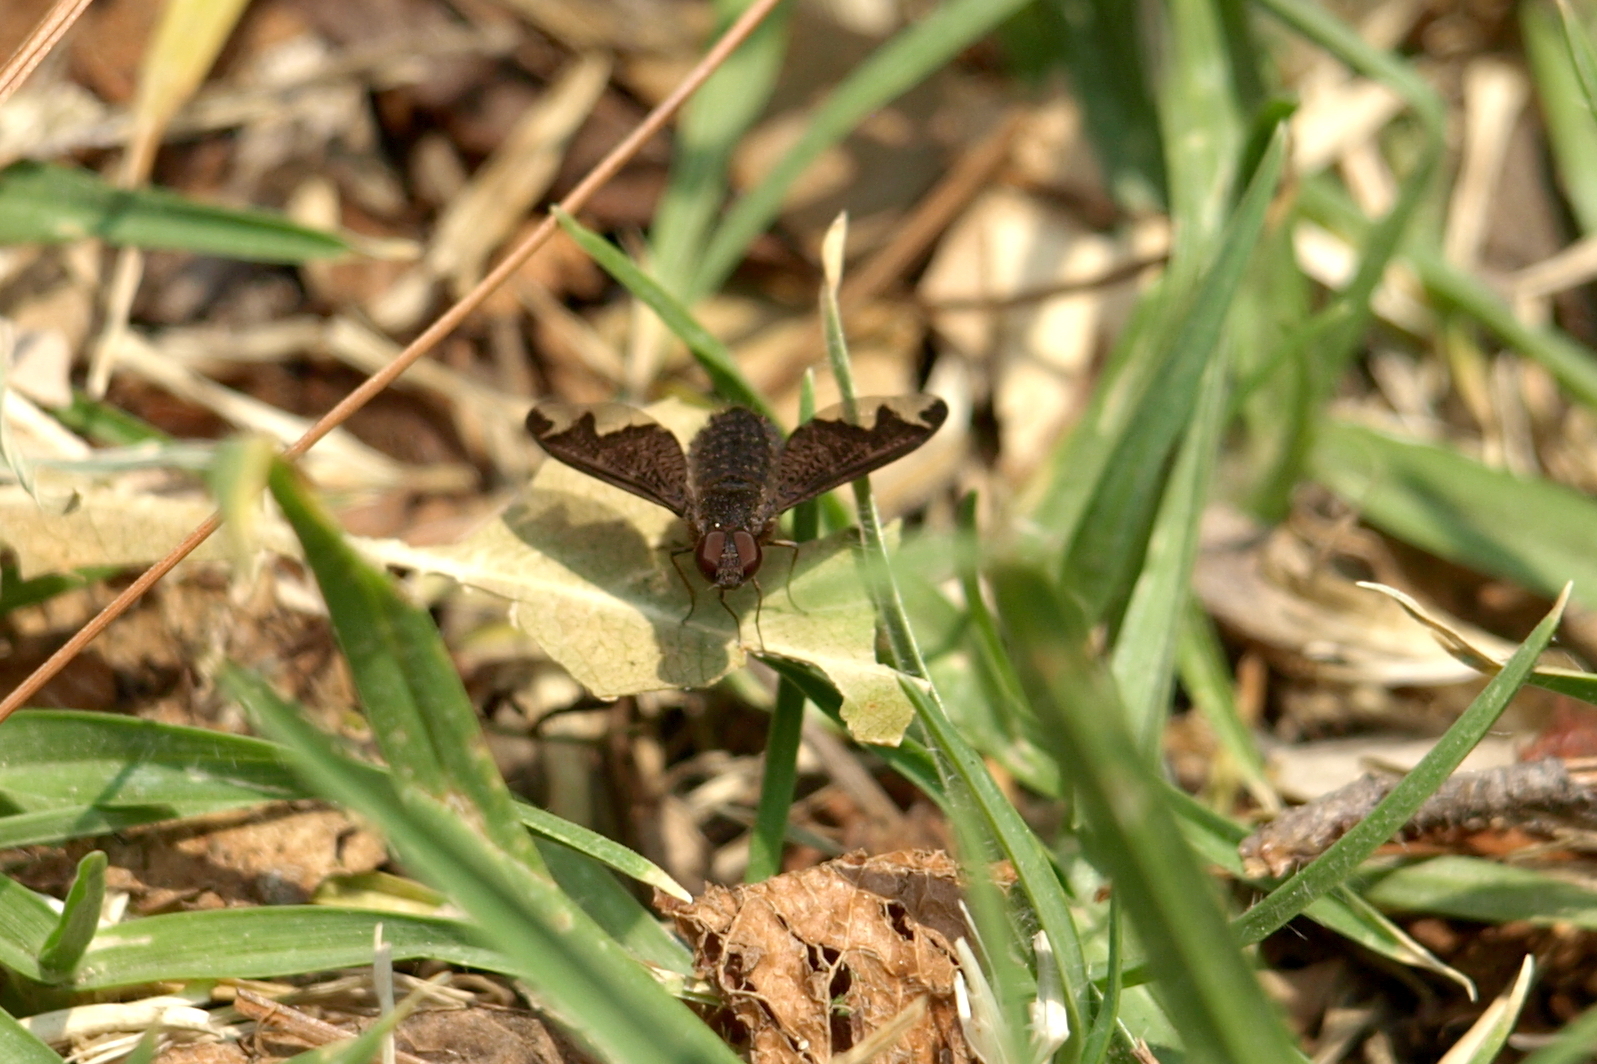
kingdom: Animalia
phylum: Arthropoda
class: Insecta
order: Diptera
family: Bombyliidae
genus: Hemipenthes
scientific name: Hemipenthes blanchardiana
